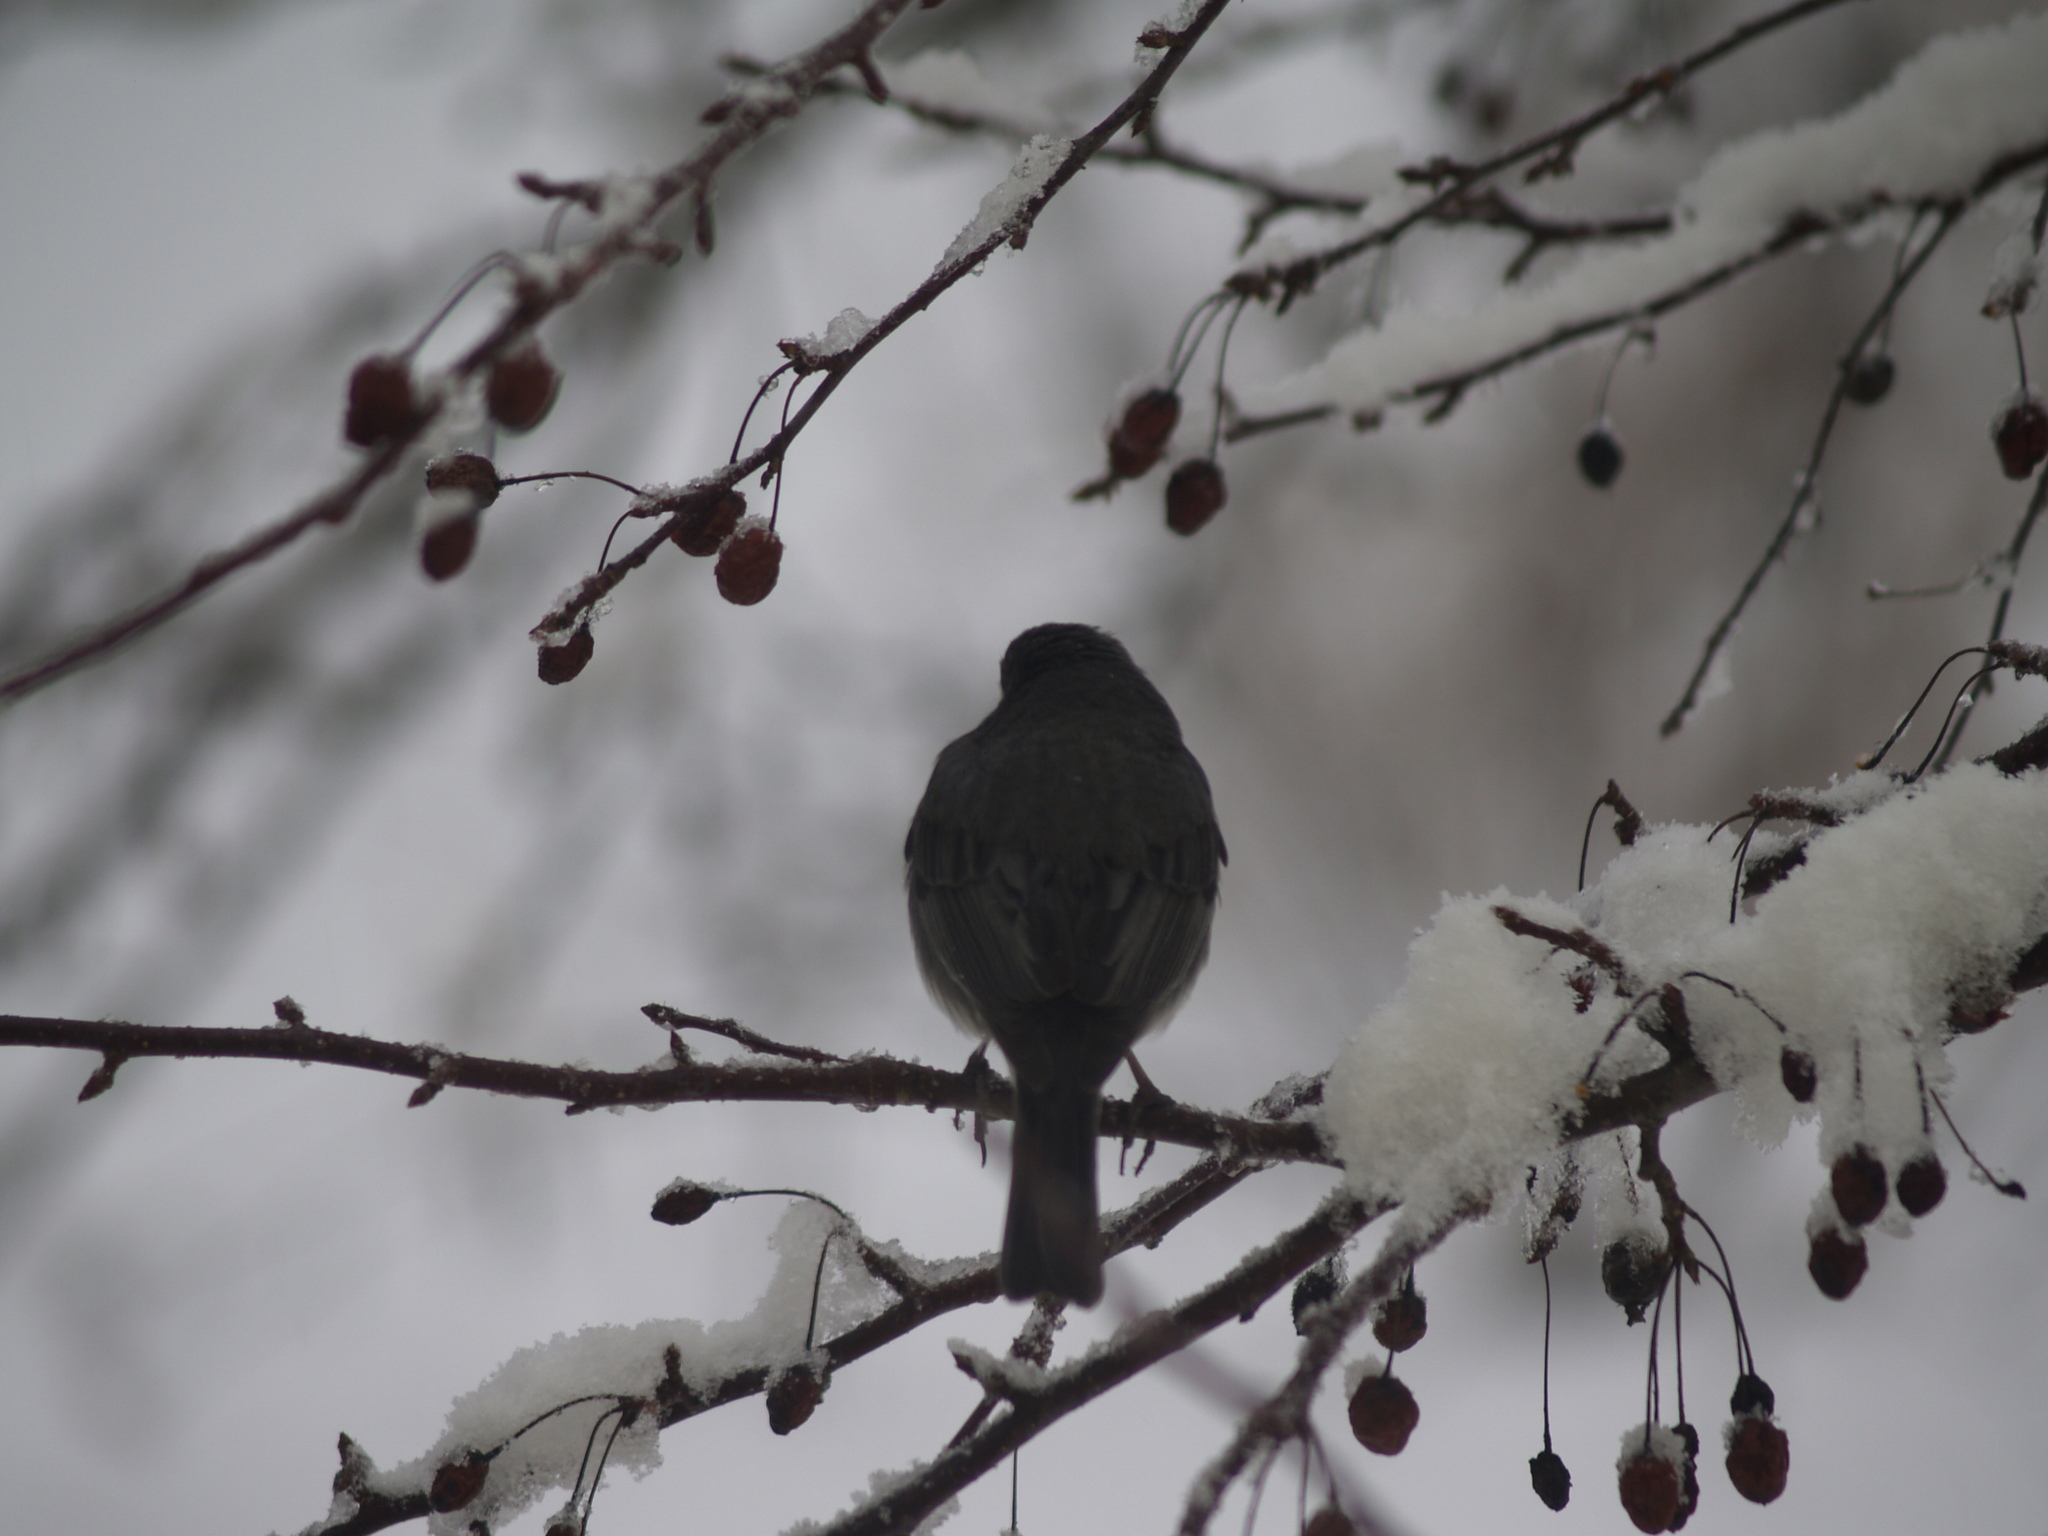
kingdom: Animalia
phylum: Chordata
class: Aves
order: Passeriformes
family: Passerellidae
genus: Junco
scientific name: Junco hyemalis
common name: Dark-eyed junco
